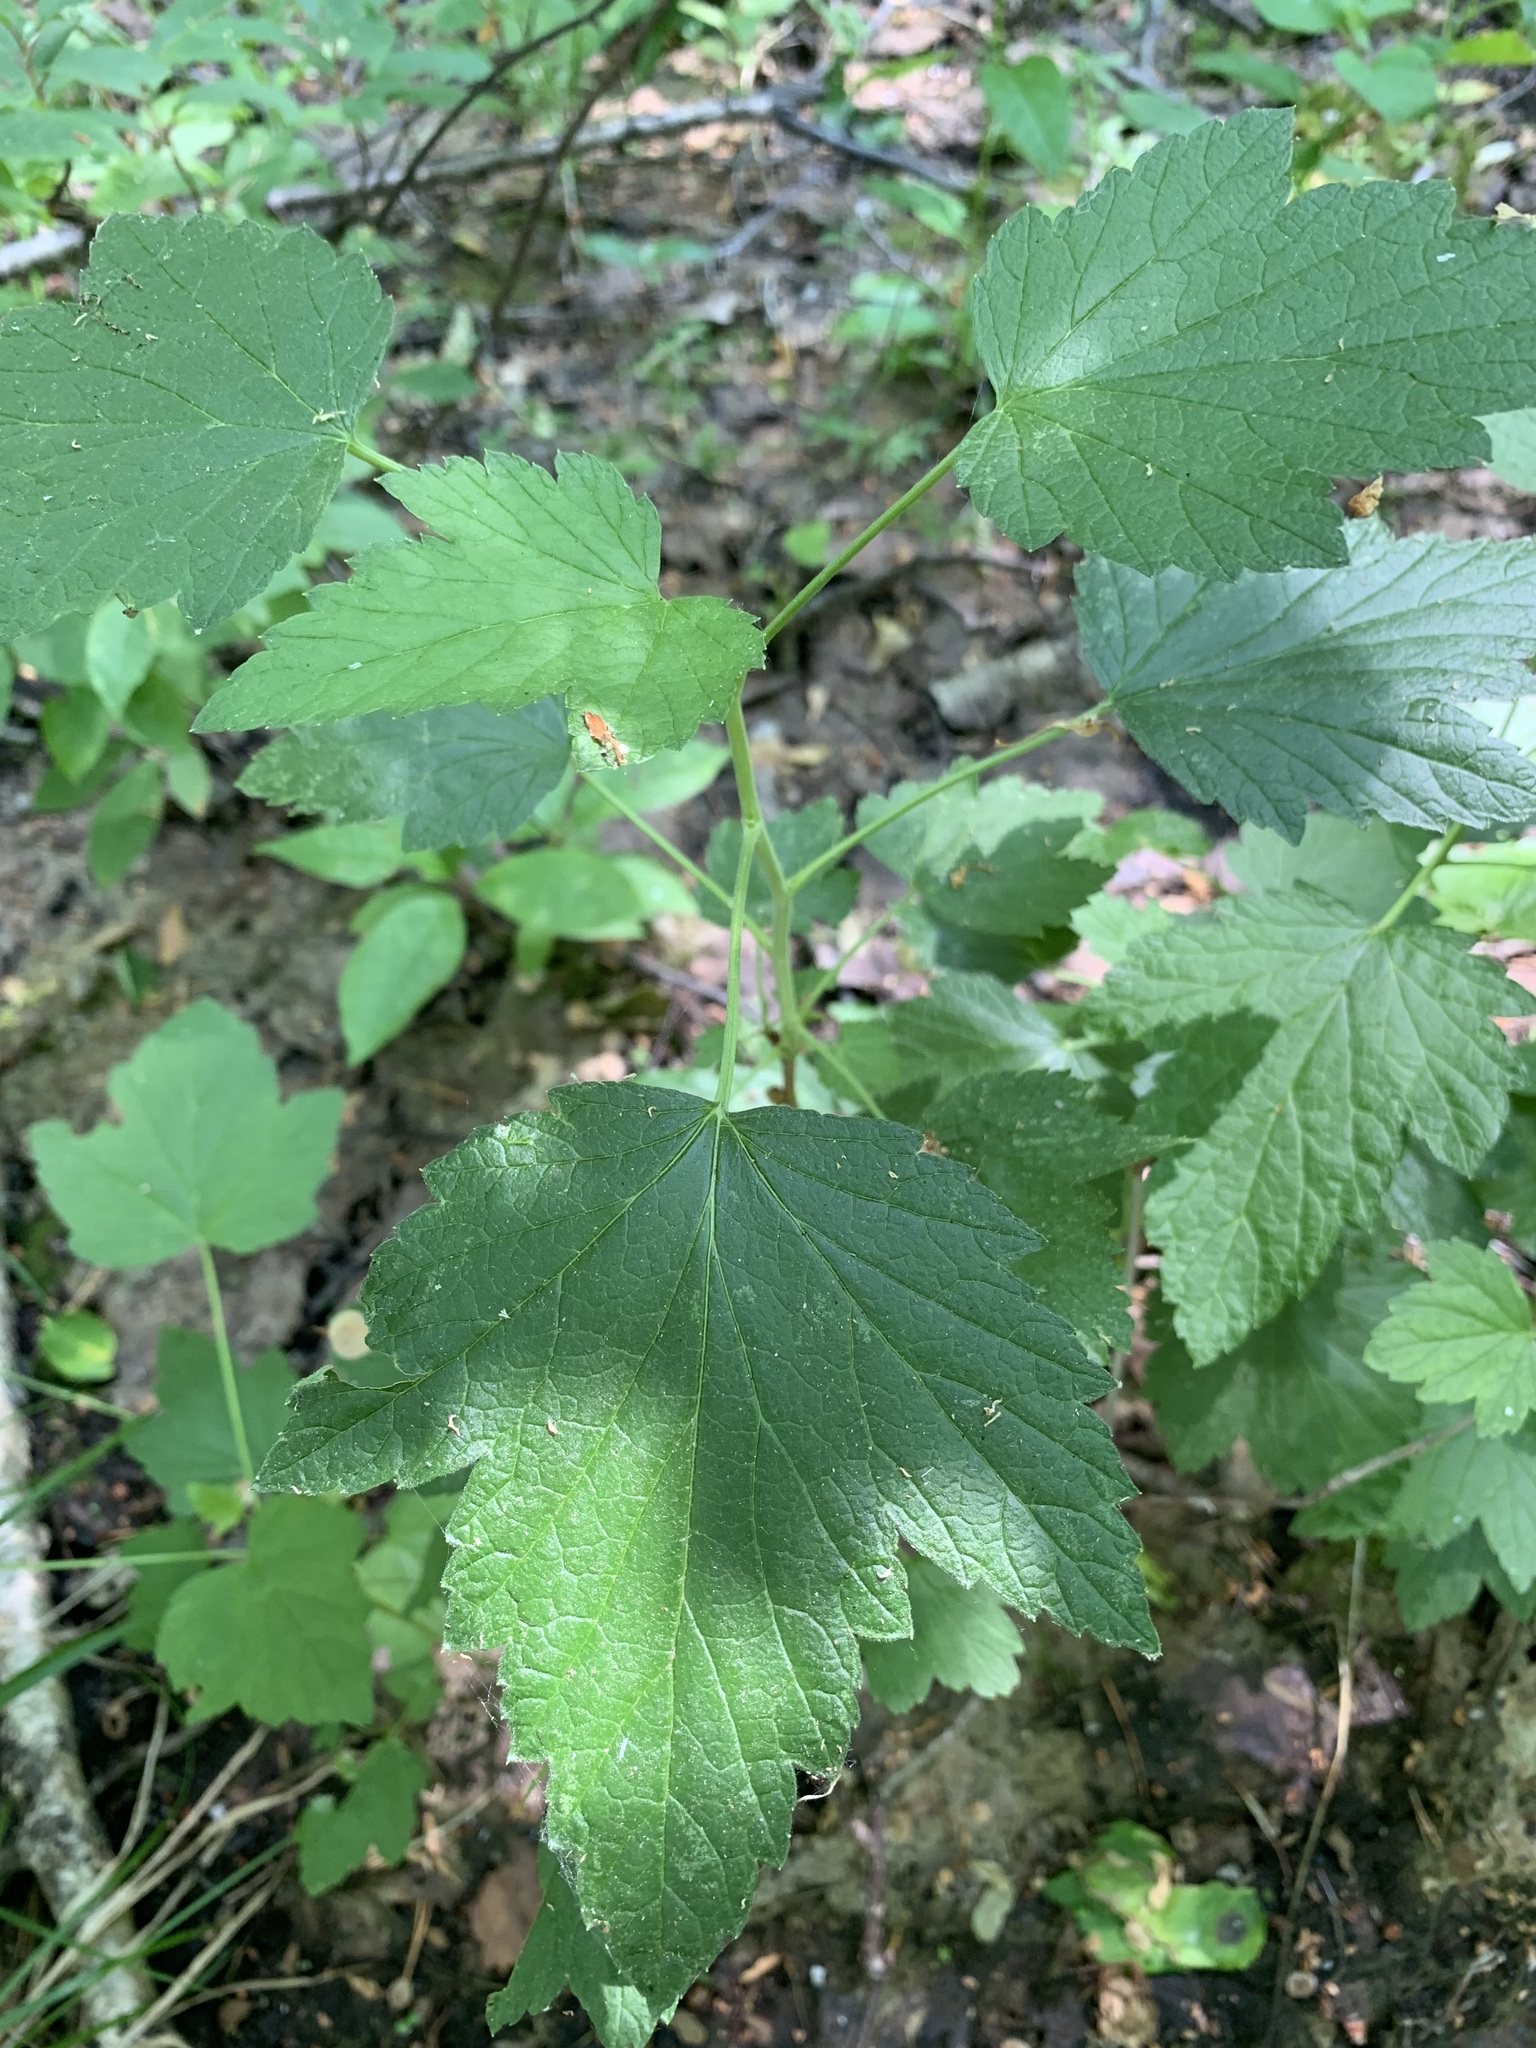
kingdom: Plantae
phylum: Tracheophyta
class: Magnoliopsida
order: Saxifragales
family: Grossulariaceae
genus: Ribes
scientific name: Ribes nigrum
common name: Black currant
